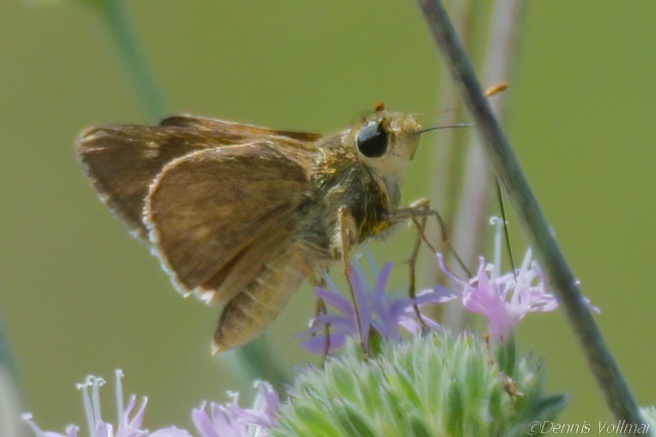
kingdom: Animalia
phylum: Arthropoda
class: Insecta
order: Lepidoptera
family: Hesperiidae
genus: Hesperia
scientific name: Hesperia attalus
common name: Dotted skipper
